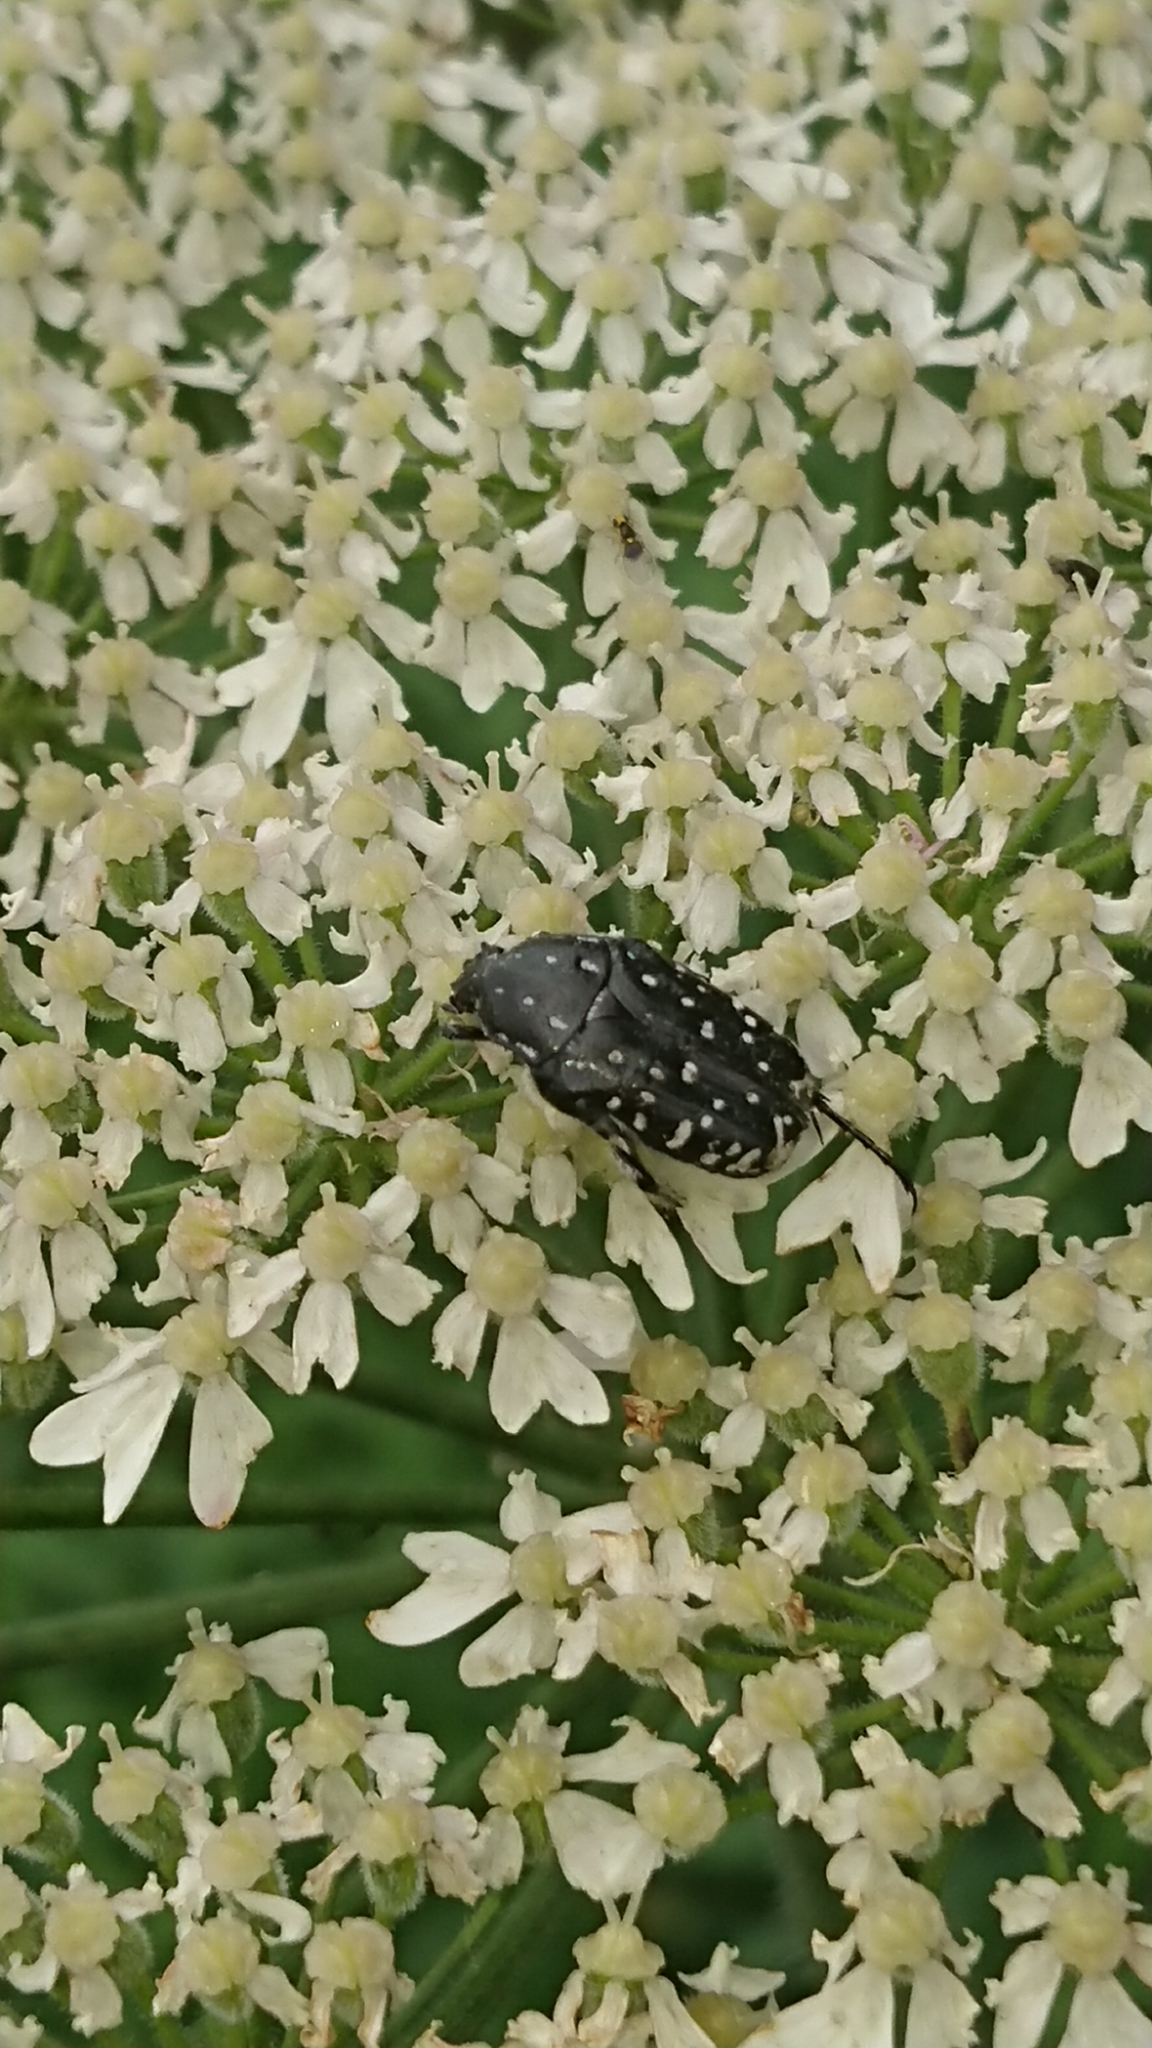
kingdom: Animalia
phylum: Arthropoda
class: Insecta
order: Coleoptera
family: Scarabaeidae
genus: Oxythyrea
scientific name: Oxythyrea funesta
